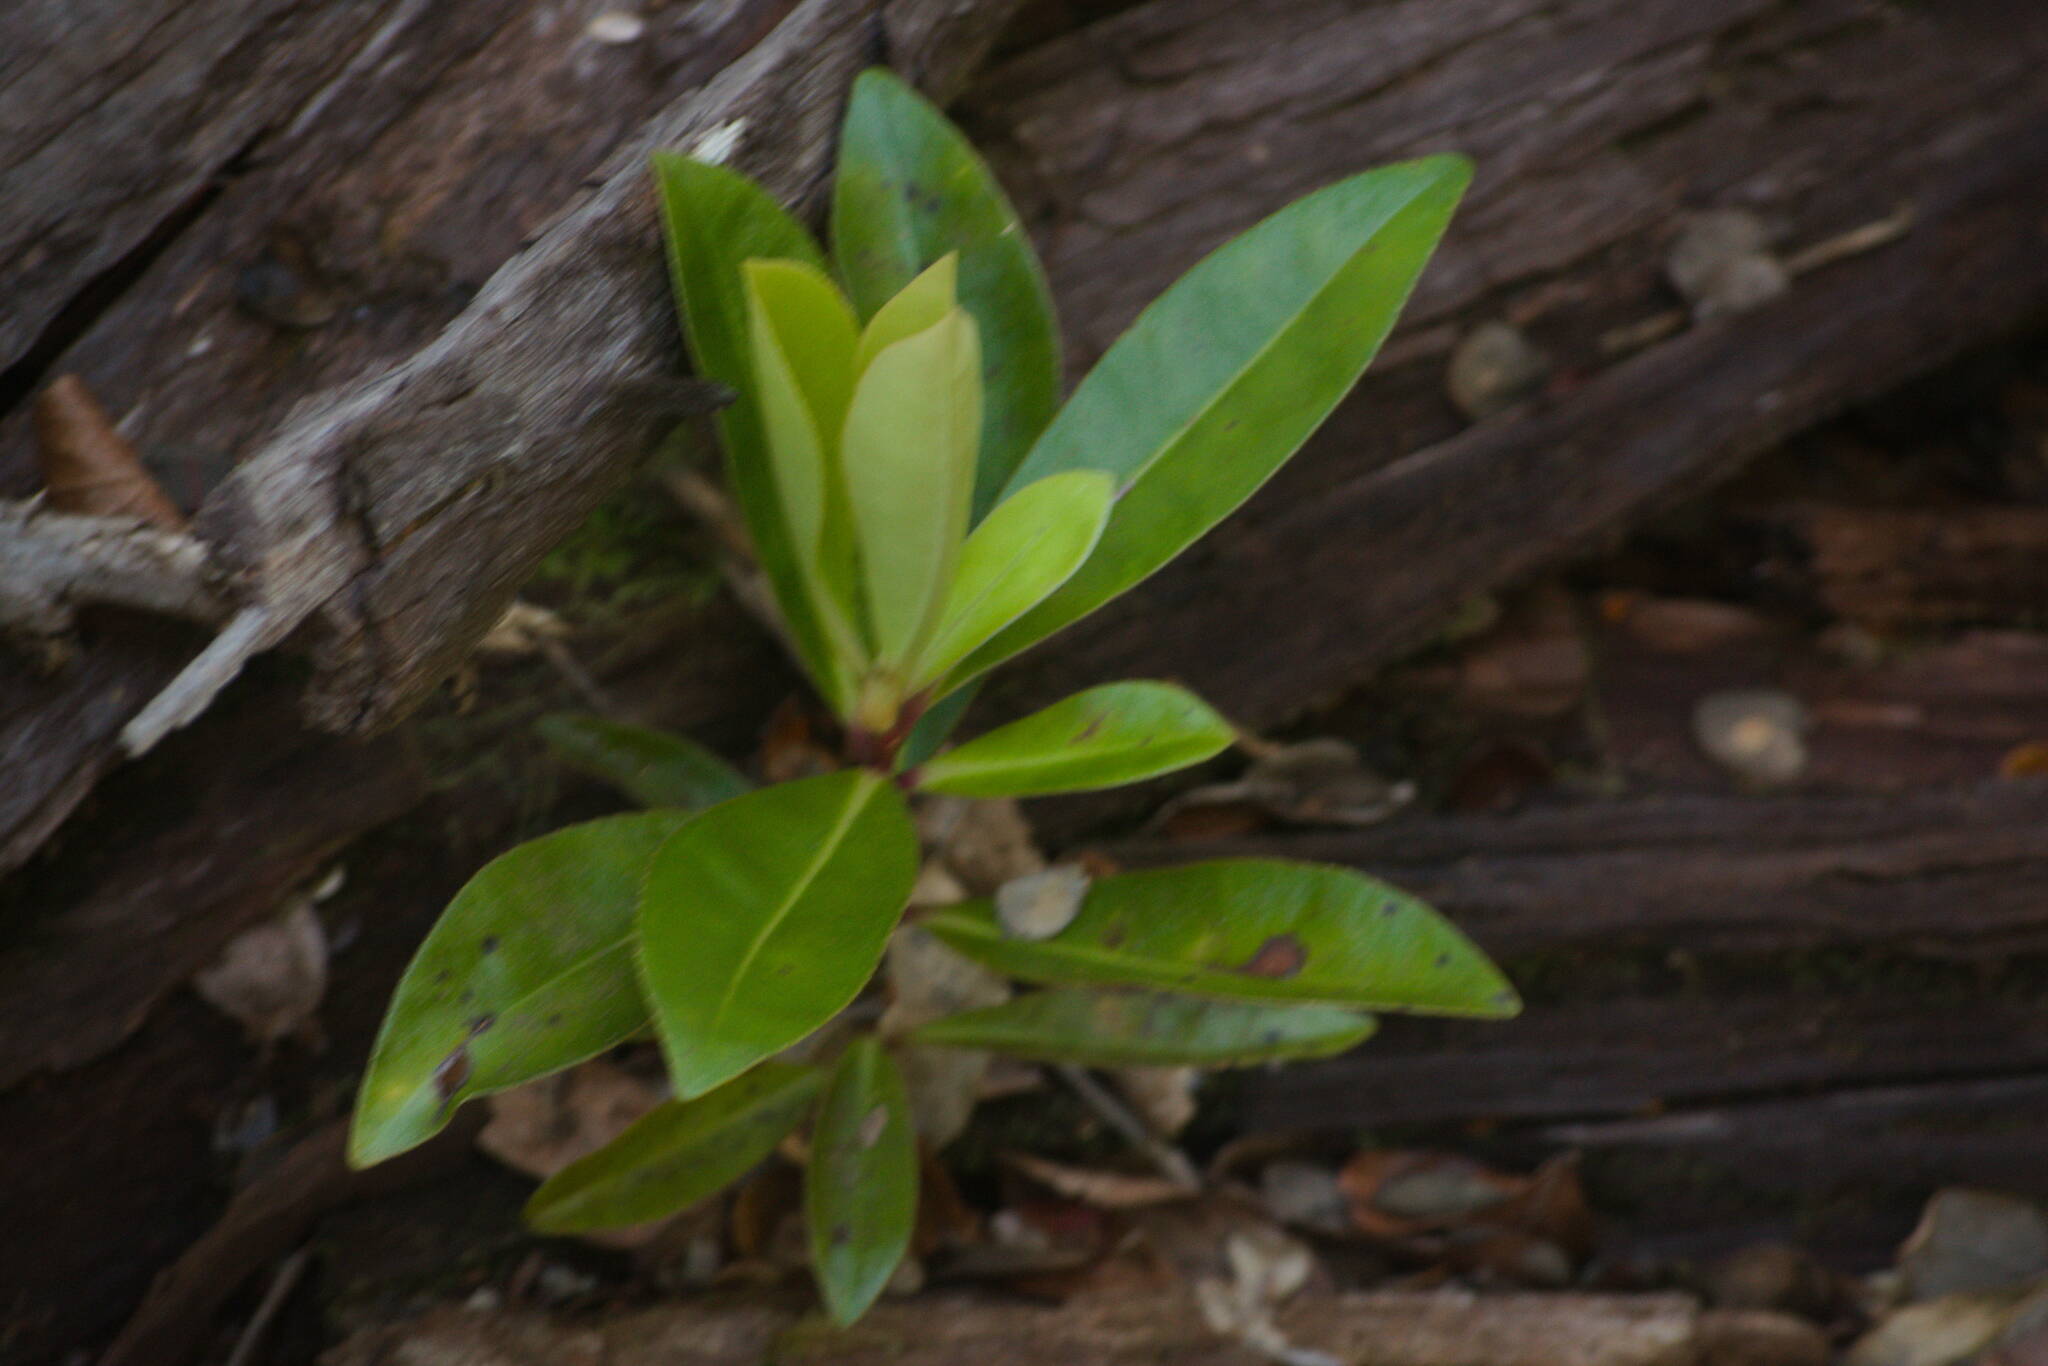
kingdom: Plantae
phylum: Tracheophyta
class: Magnoliopsida
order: Ericales
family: Primulaceae
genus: Myrsine
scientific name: Myrsine lessertiana
